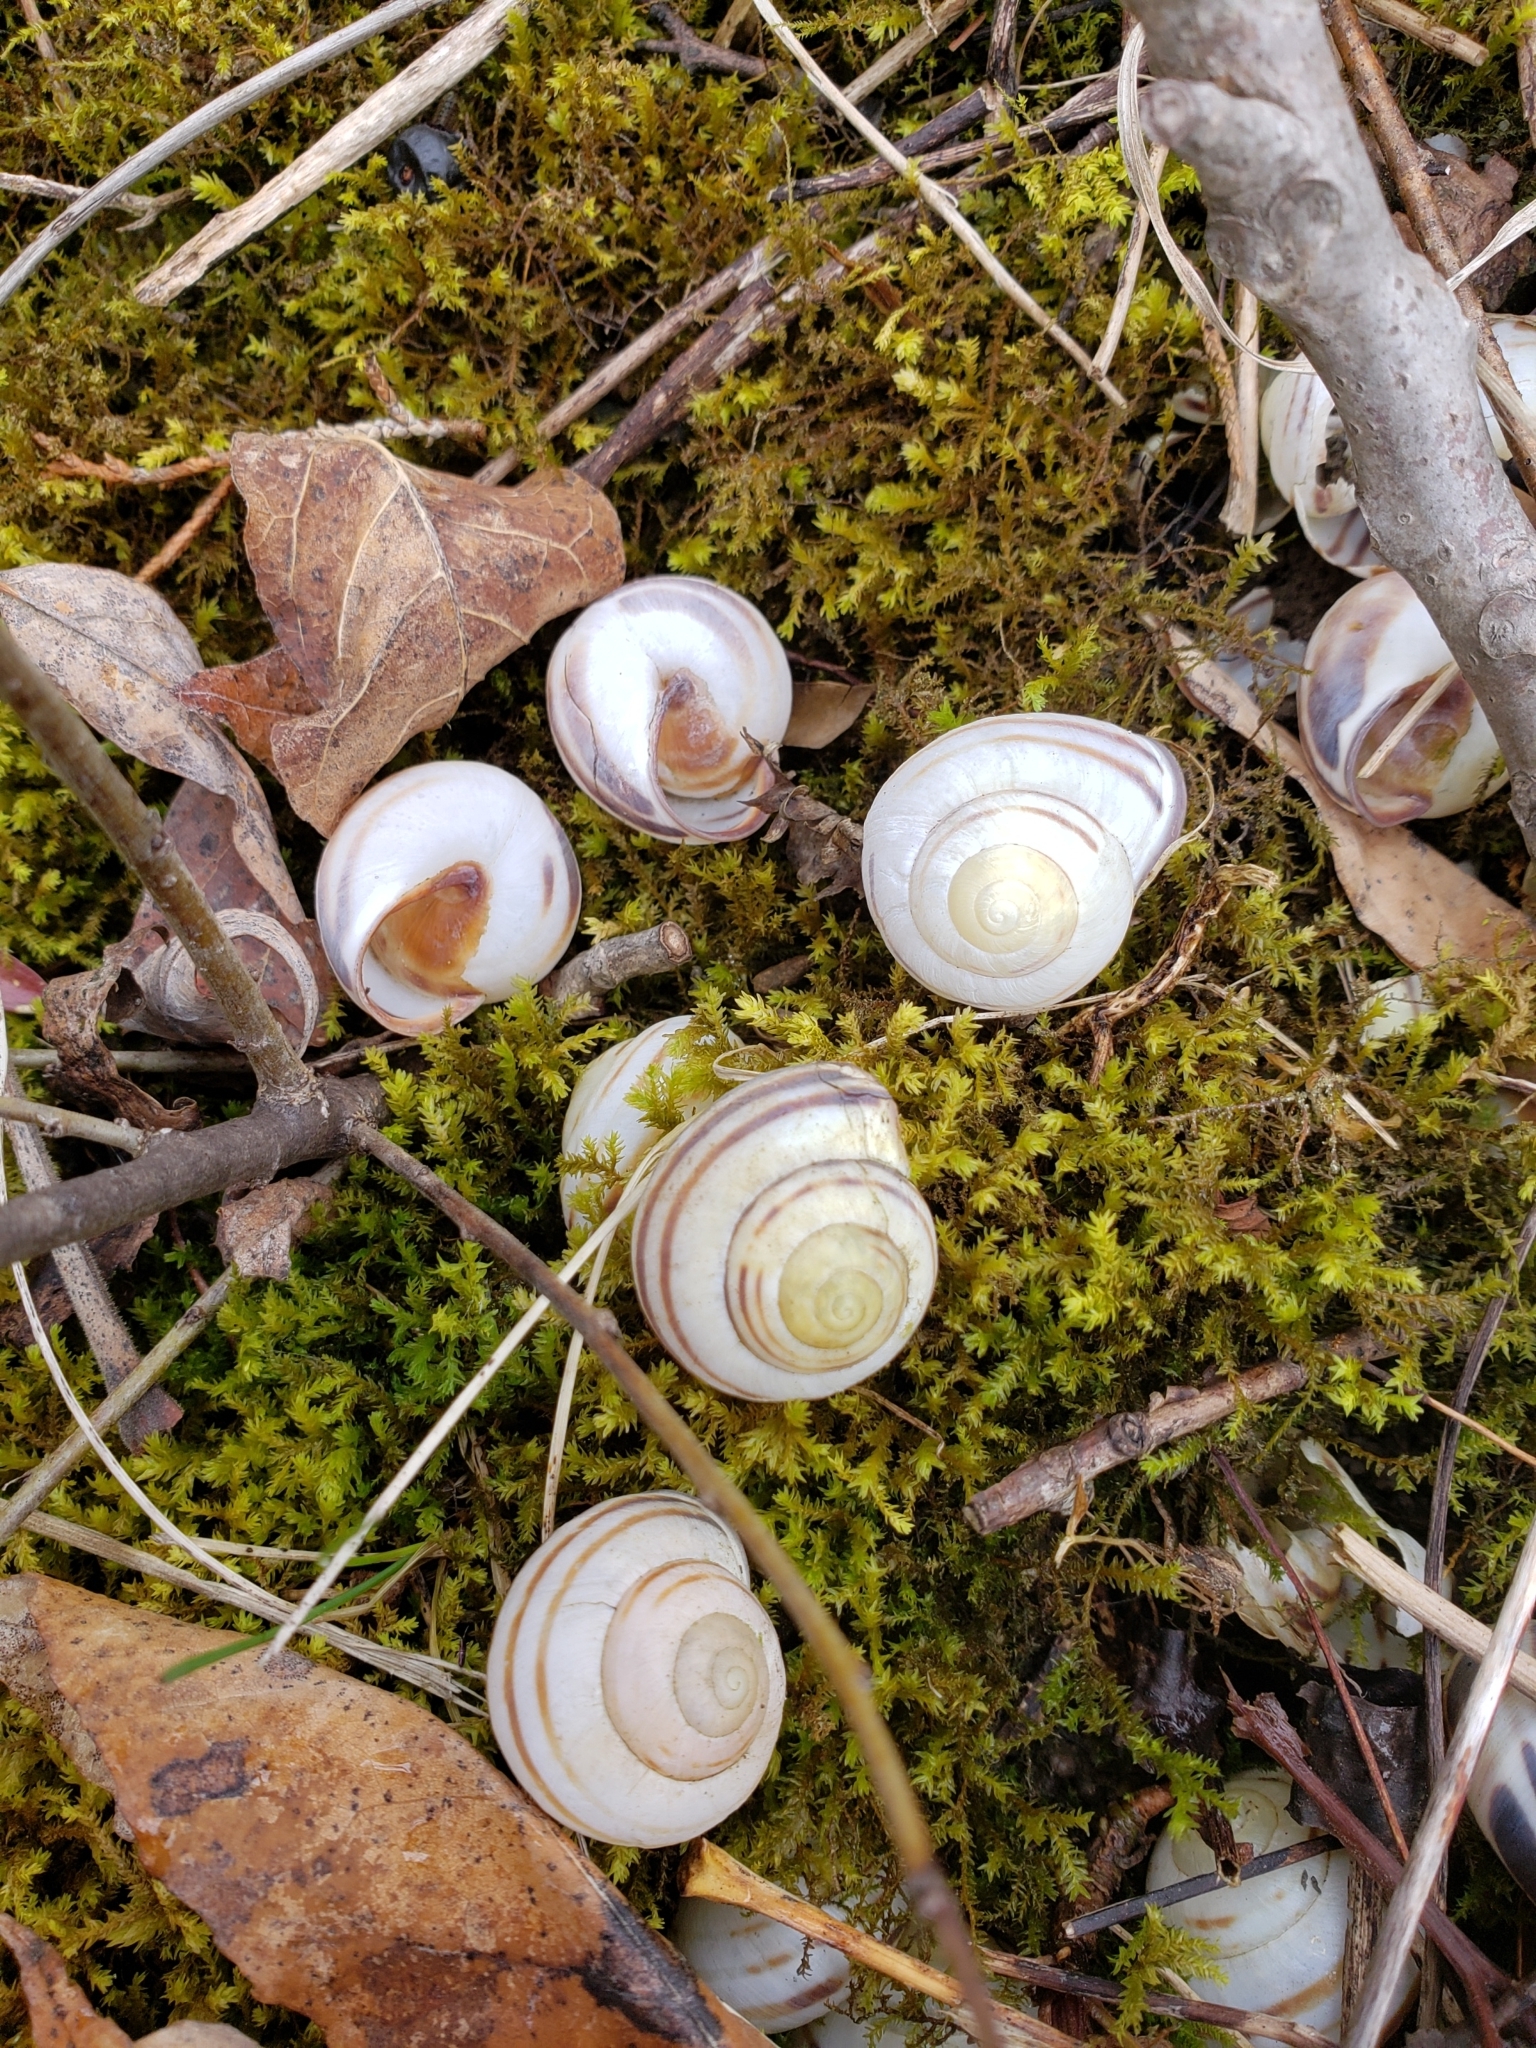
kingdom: Animalia
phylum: Mollusca
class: Gastropoda
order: Stylommatophora
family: Helicidae
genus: Cepaea
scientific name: Cepaea nemoralis
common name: Grovesnail
